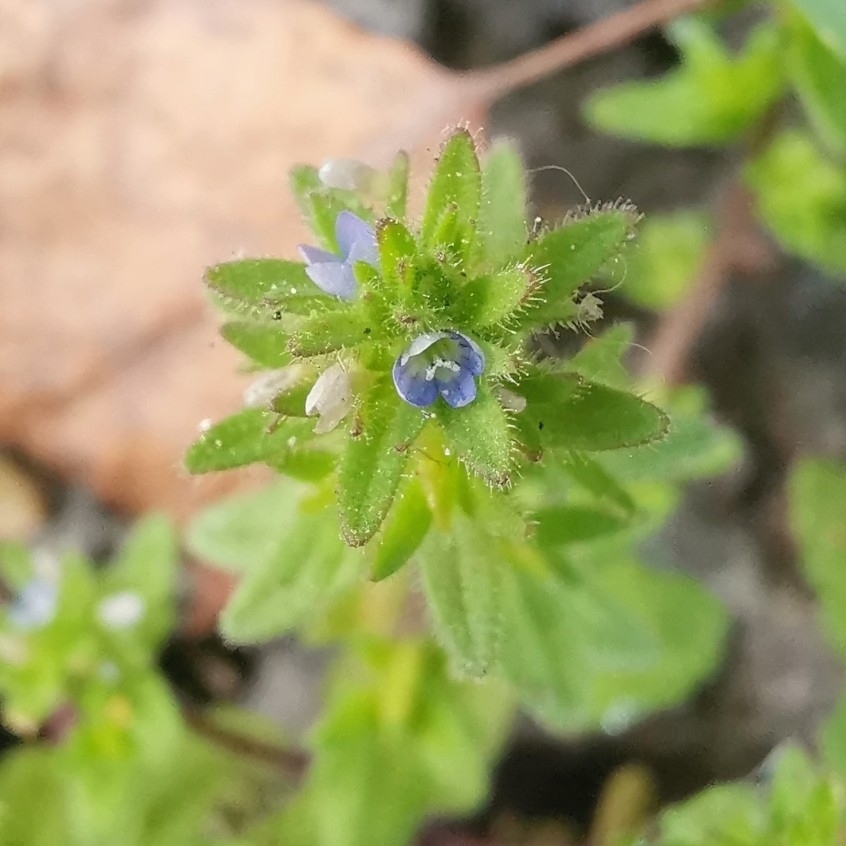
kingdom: Plantae
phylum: Tracheophyta
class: Magnoliopsida
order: Lamiales
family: Plantaginaceae
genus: Veronica
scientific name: Veronica arvensis
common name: Corn speedwell
